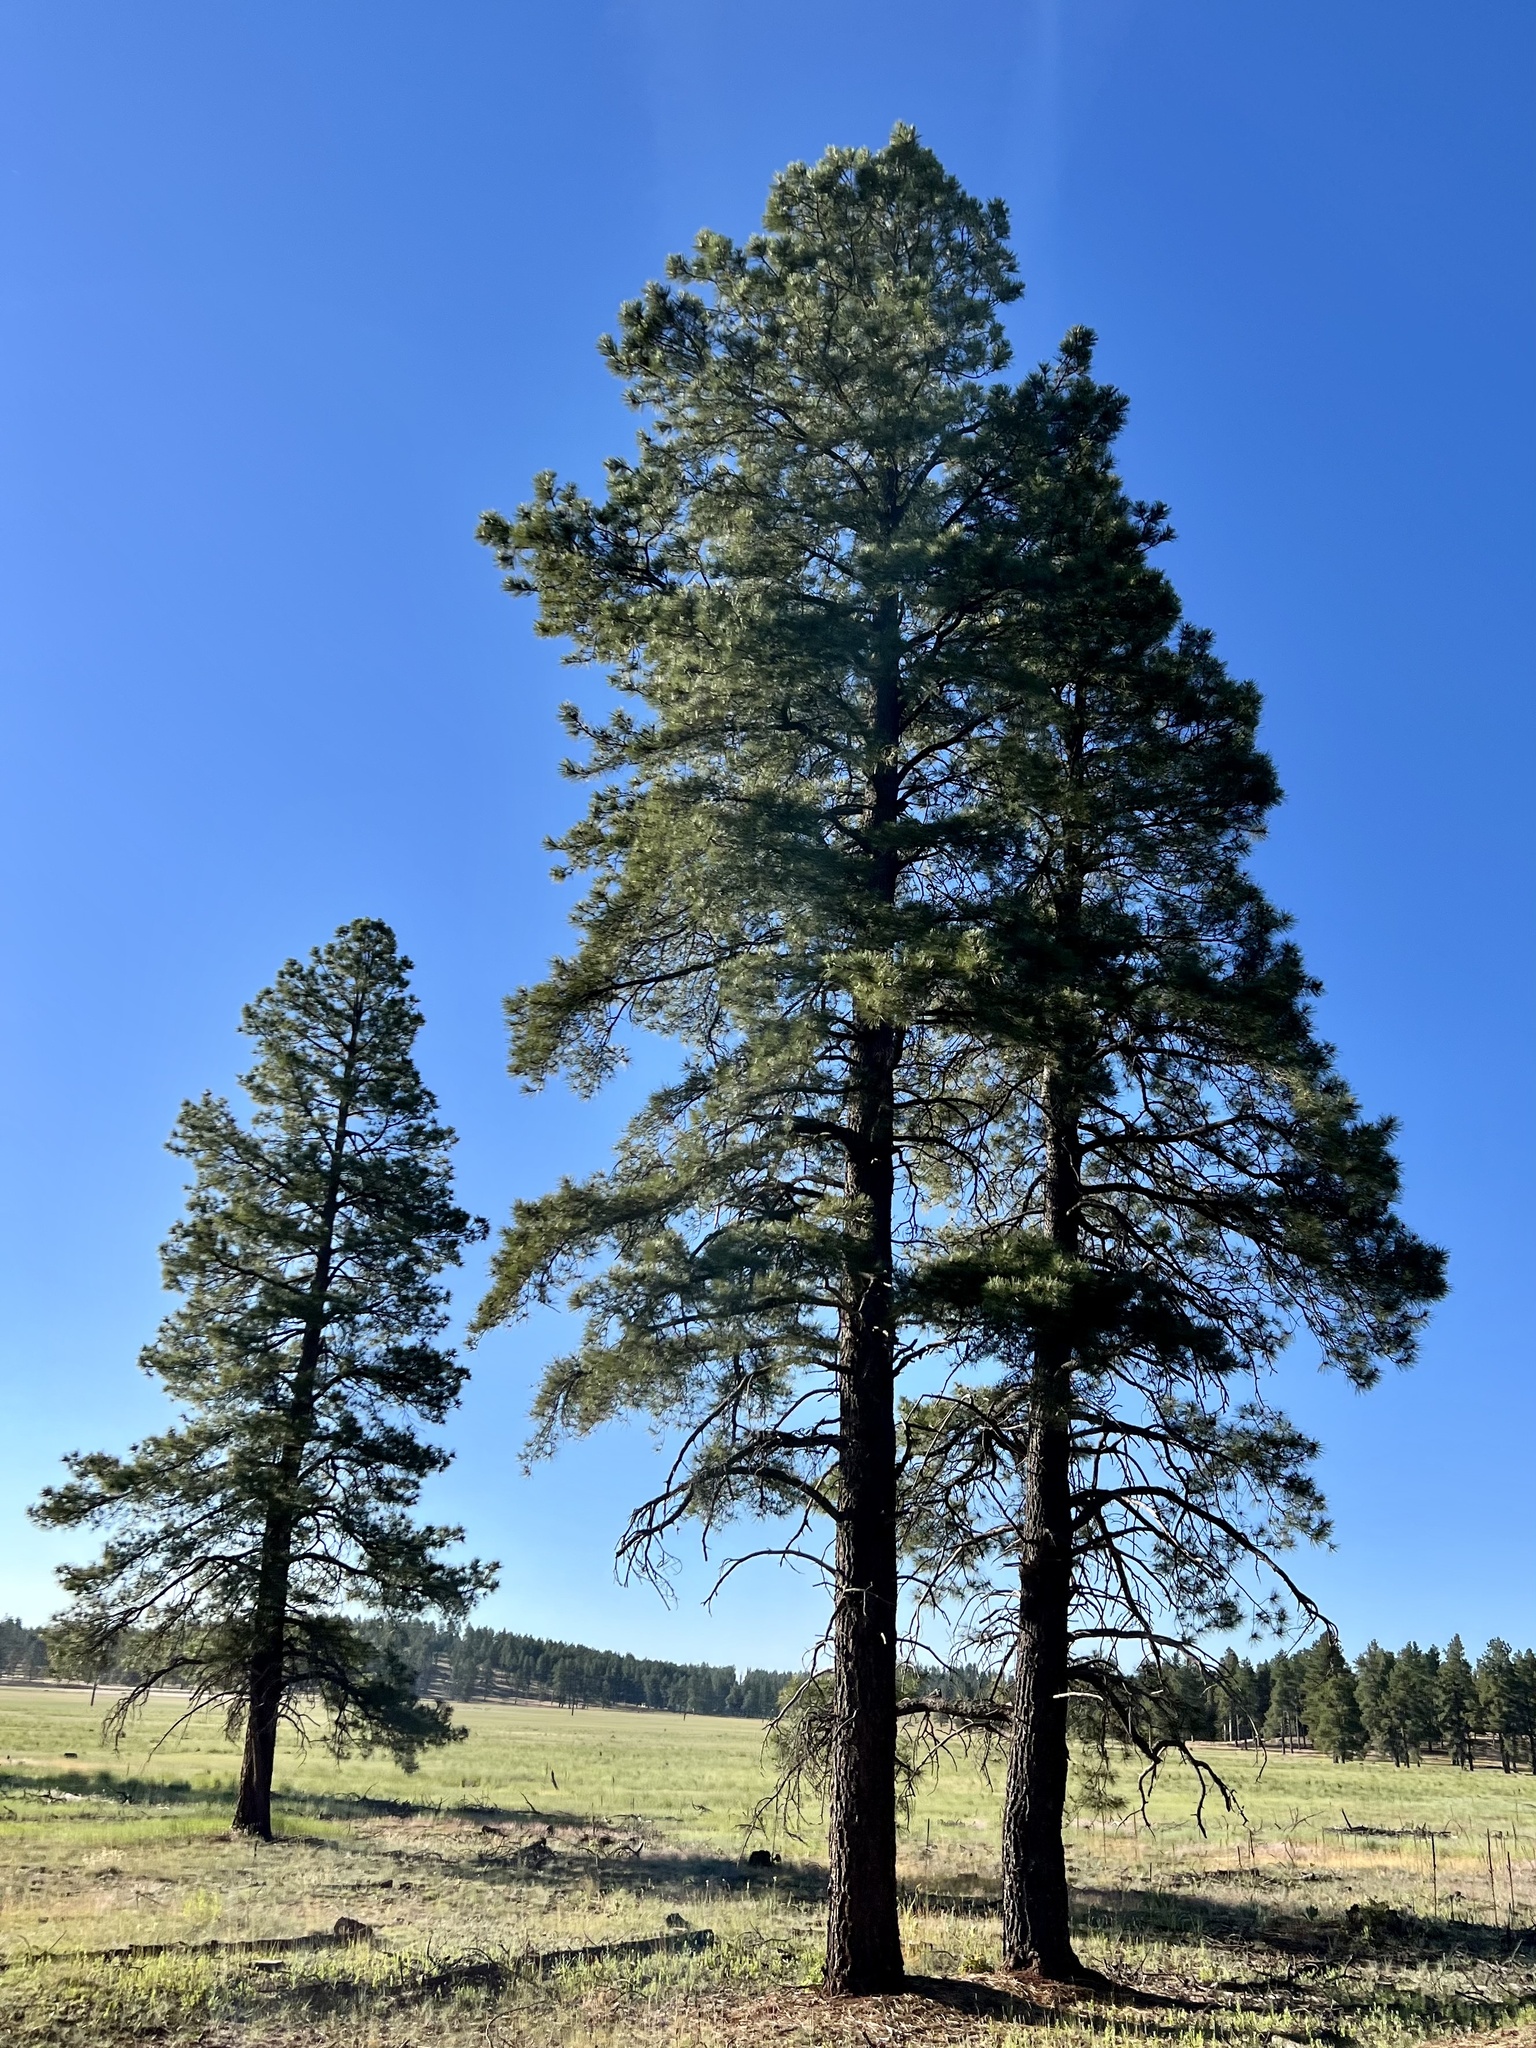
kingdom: Plantae
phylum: Tracheophyta
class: Pinopsida
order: Pinales
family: Pinaceae
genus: Pinus
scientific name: Pinus ponderosa
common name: Western yellow-pine
